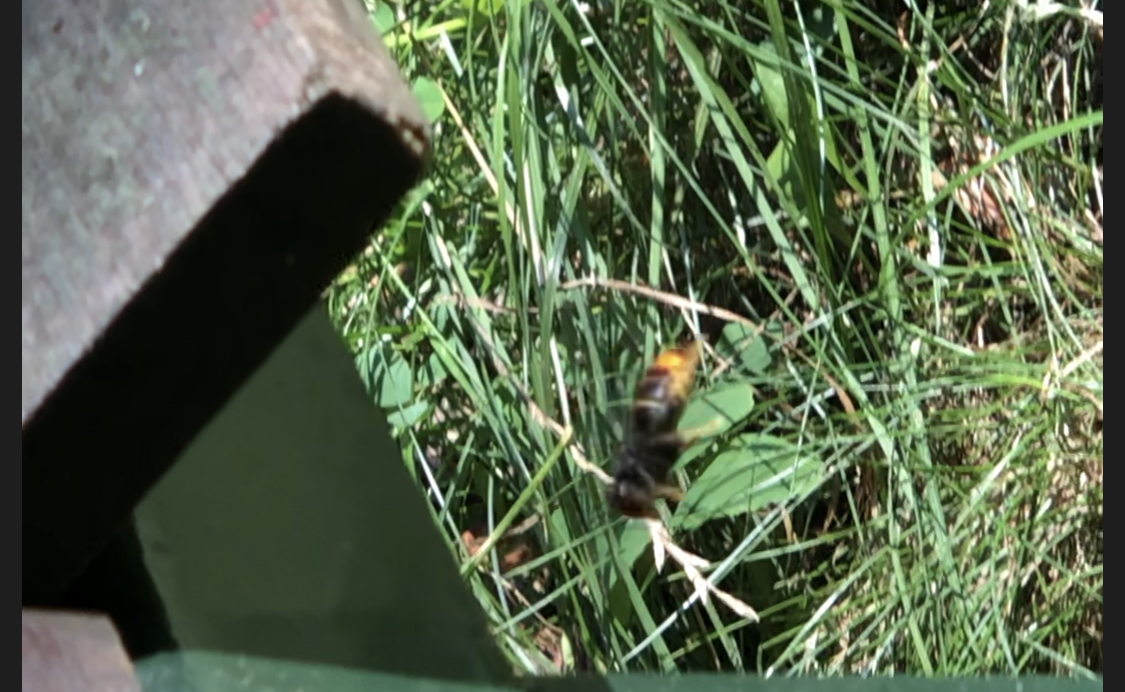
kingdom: Animalia
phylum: Arthropoda
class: Insecta
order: Hymenoptera
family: Vespidae
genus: Vespa
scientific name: Vespa velutina
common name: Asian hornet
